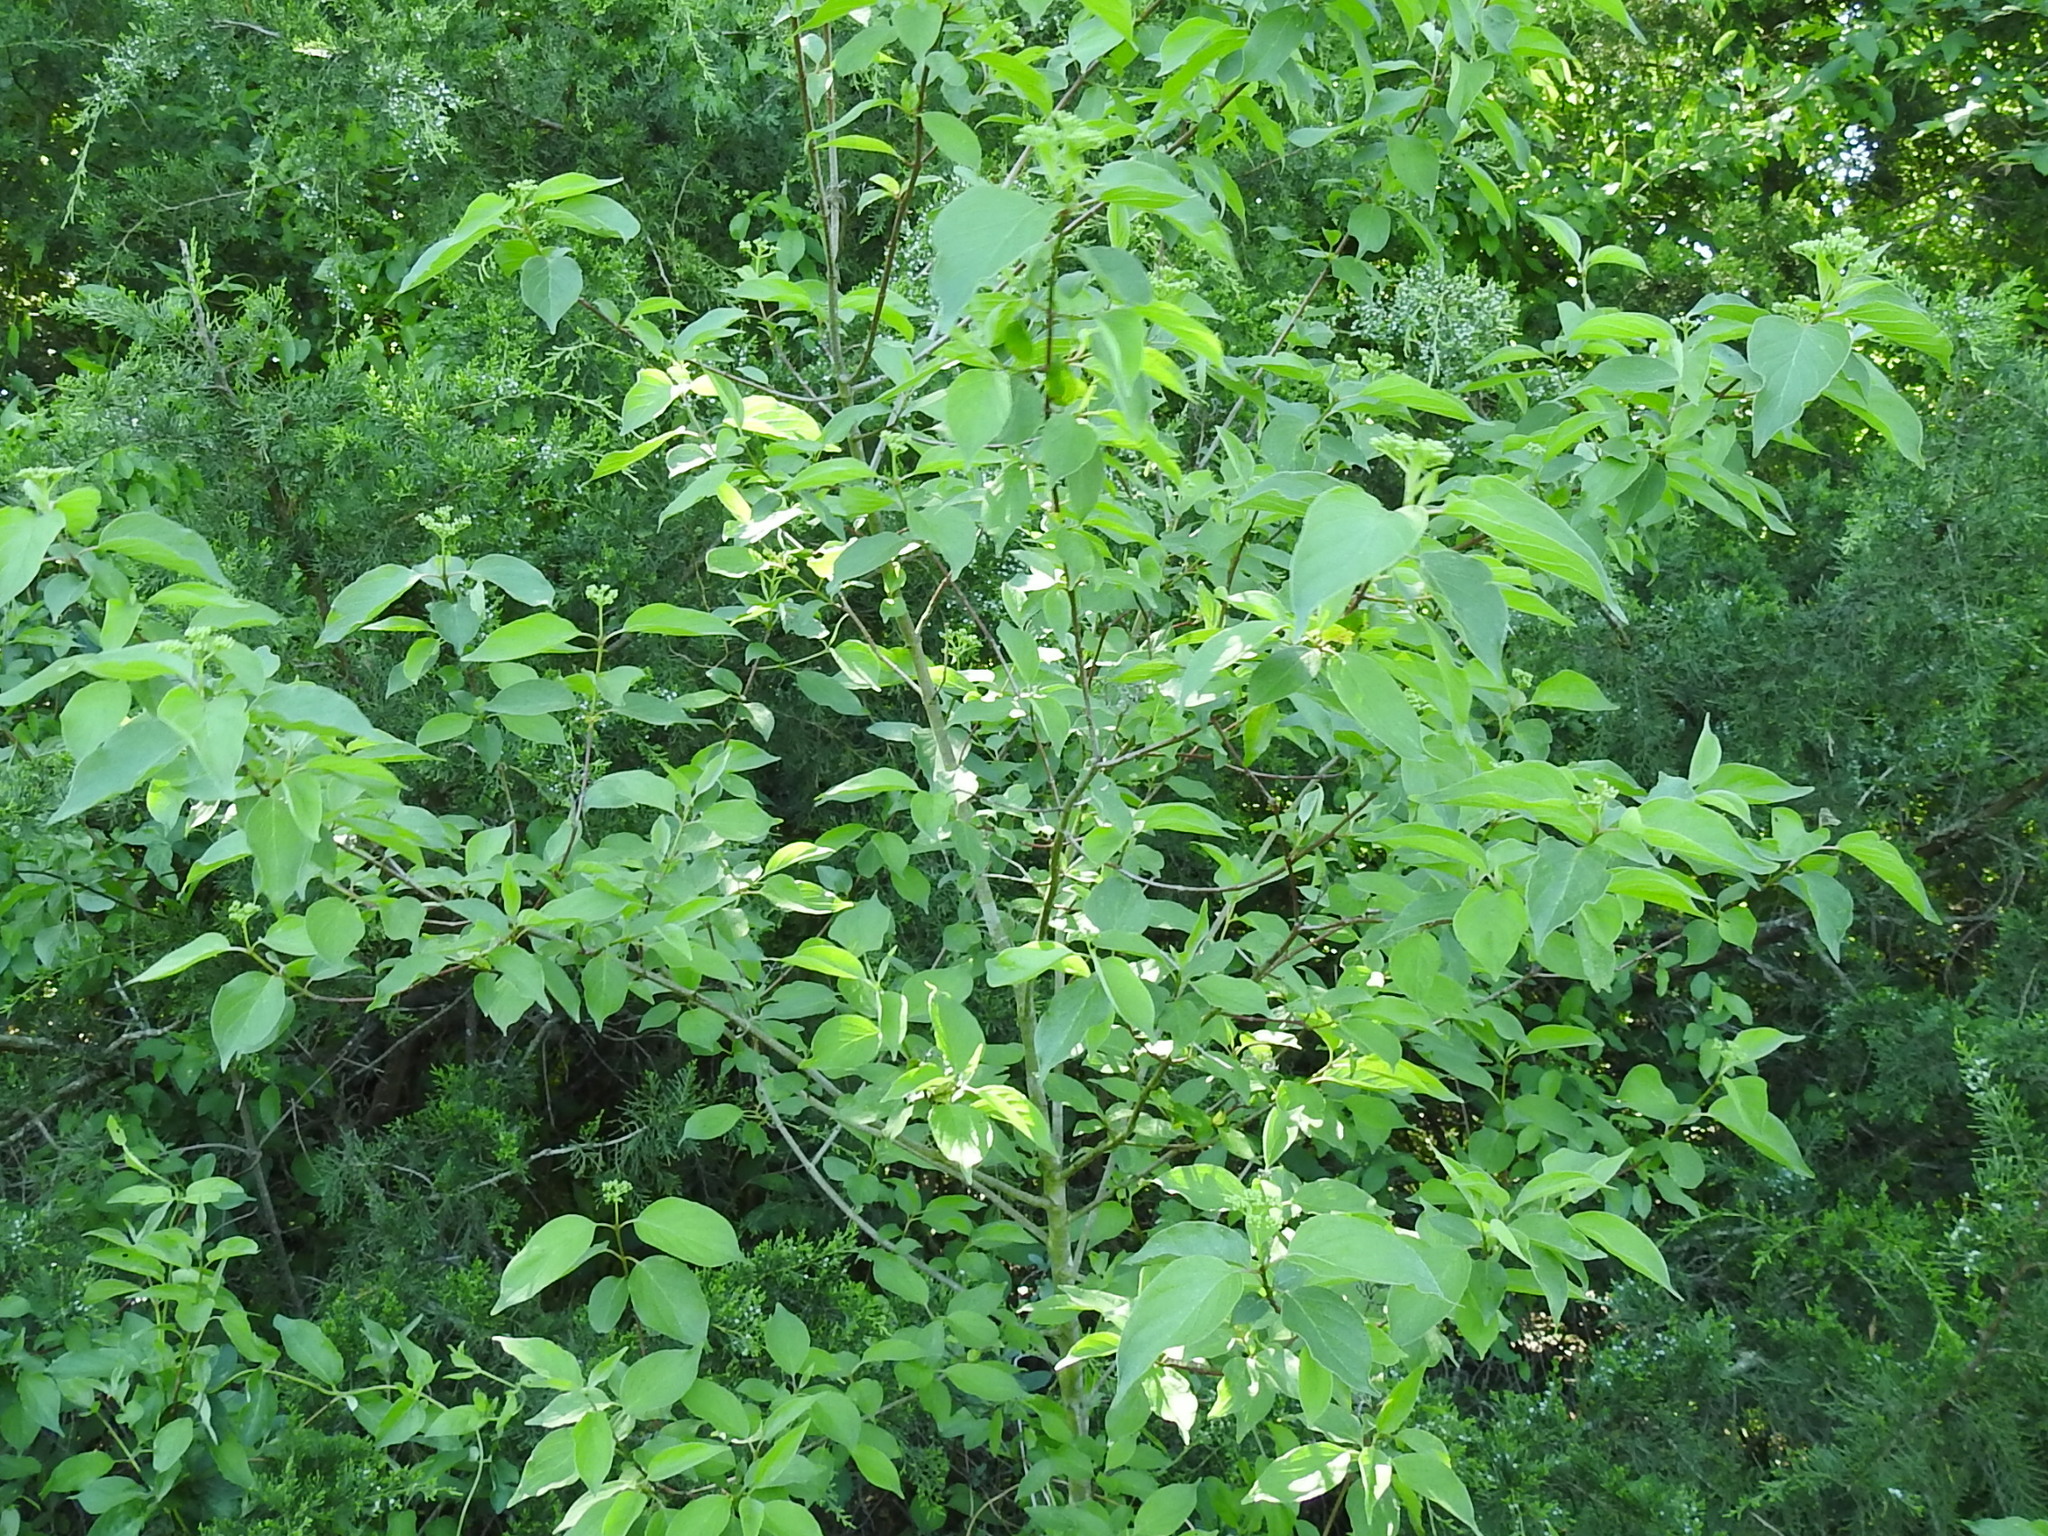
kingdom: Plantae
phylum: Tracheophyta
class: Magnoliopsida
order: Cornales
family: Cornaceae
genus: Cornus
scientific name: Cornus drummondii
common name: Rough-leaf dogwood
